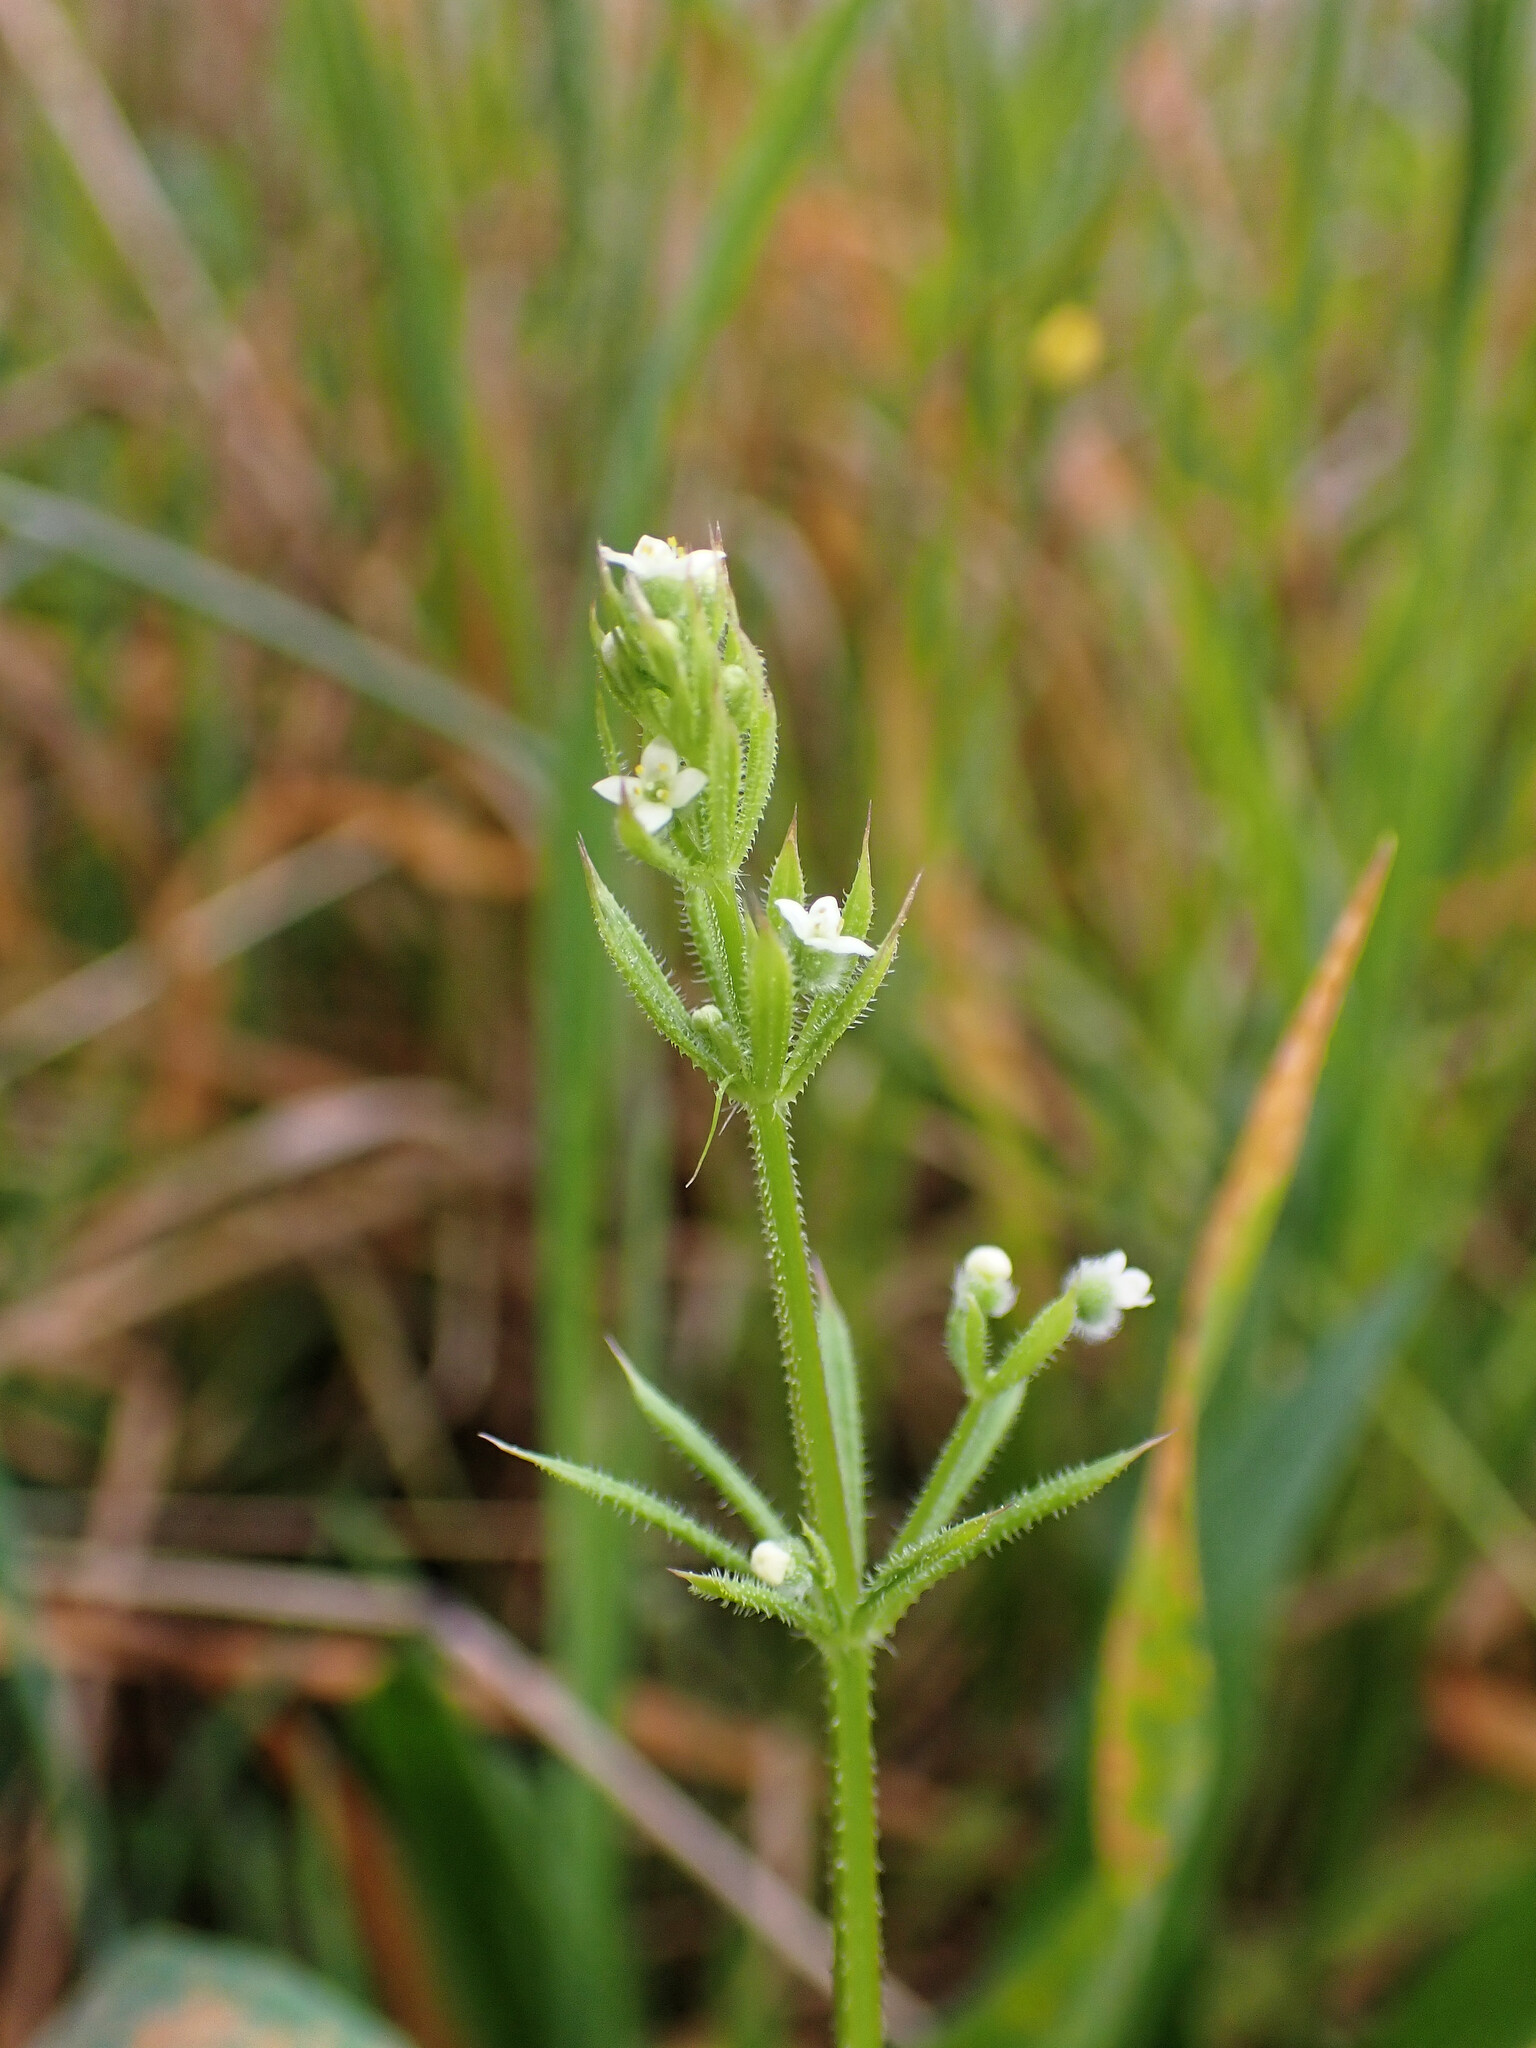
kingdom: Plantae
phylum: Tracheophyta
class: Magnoliopsida
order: Gentianales
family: Rubiaceae
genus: Galium
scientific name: Galium aparine
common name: Cleavers
